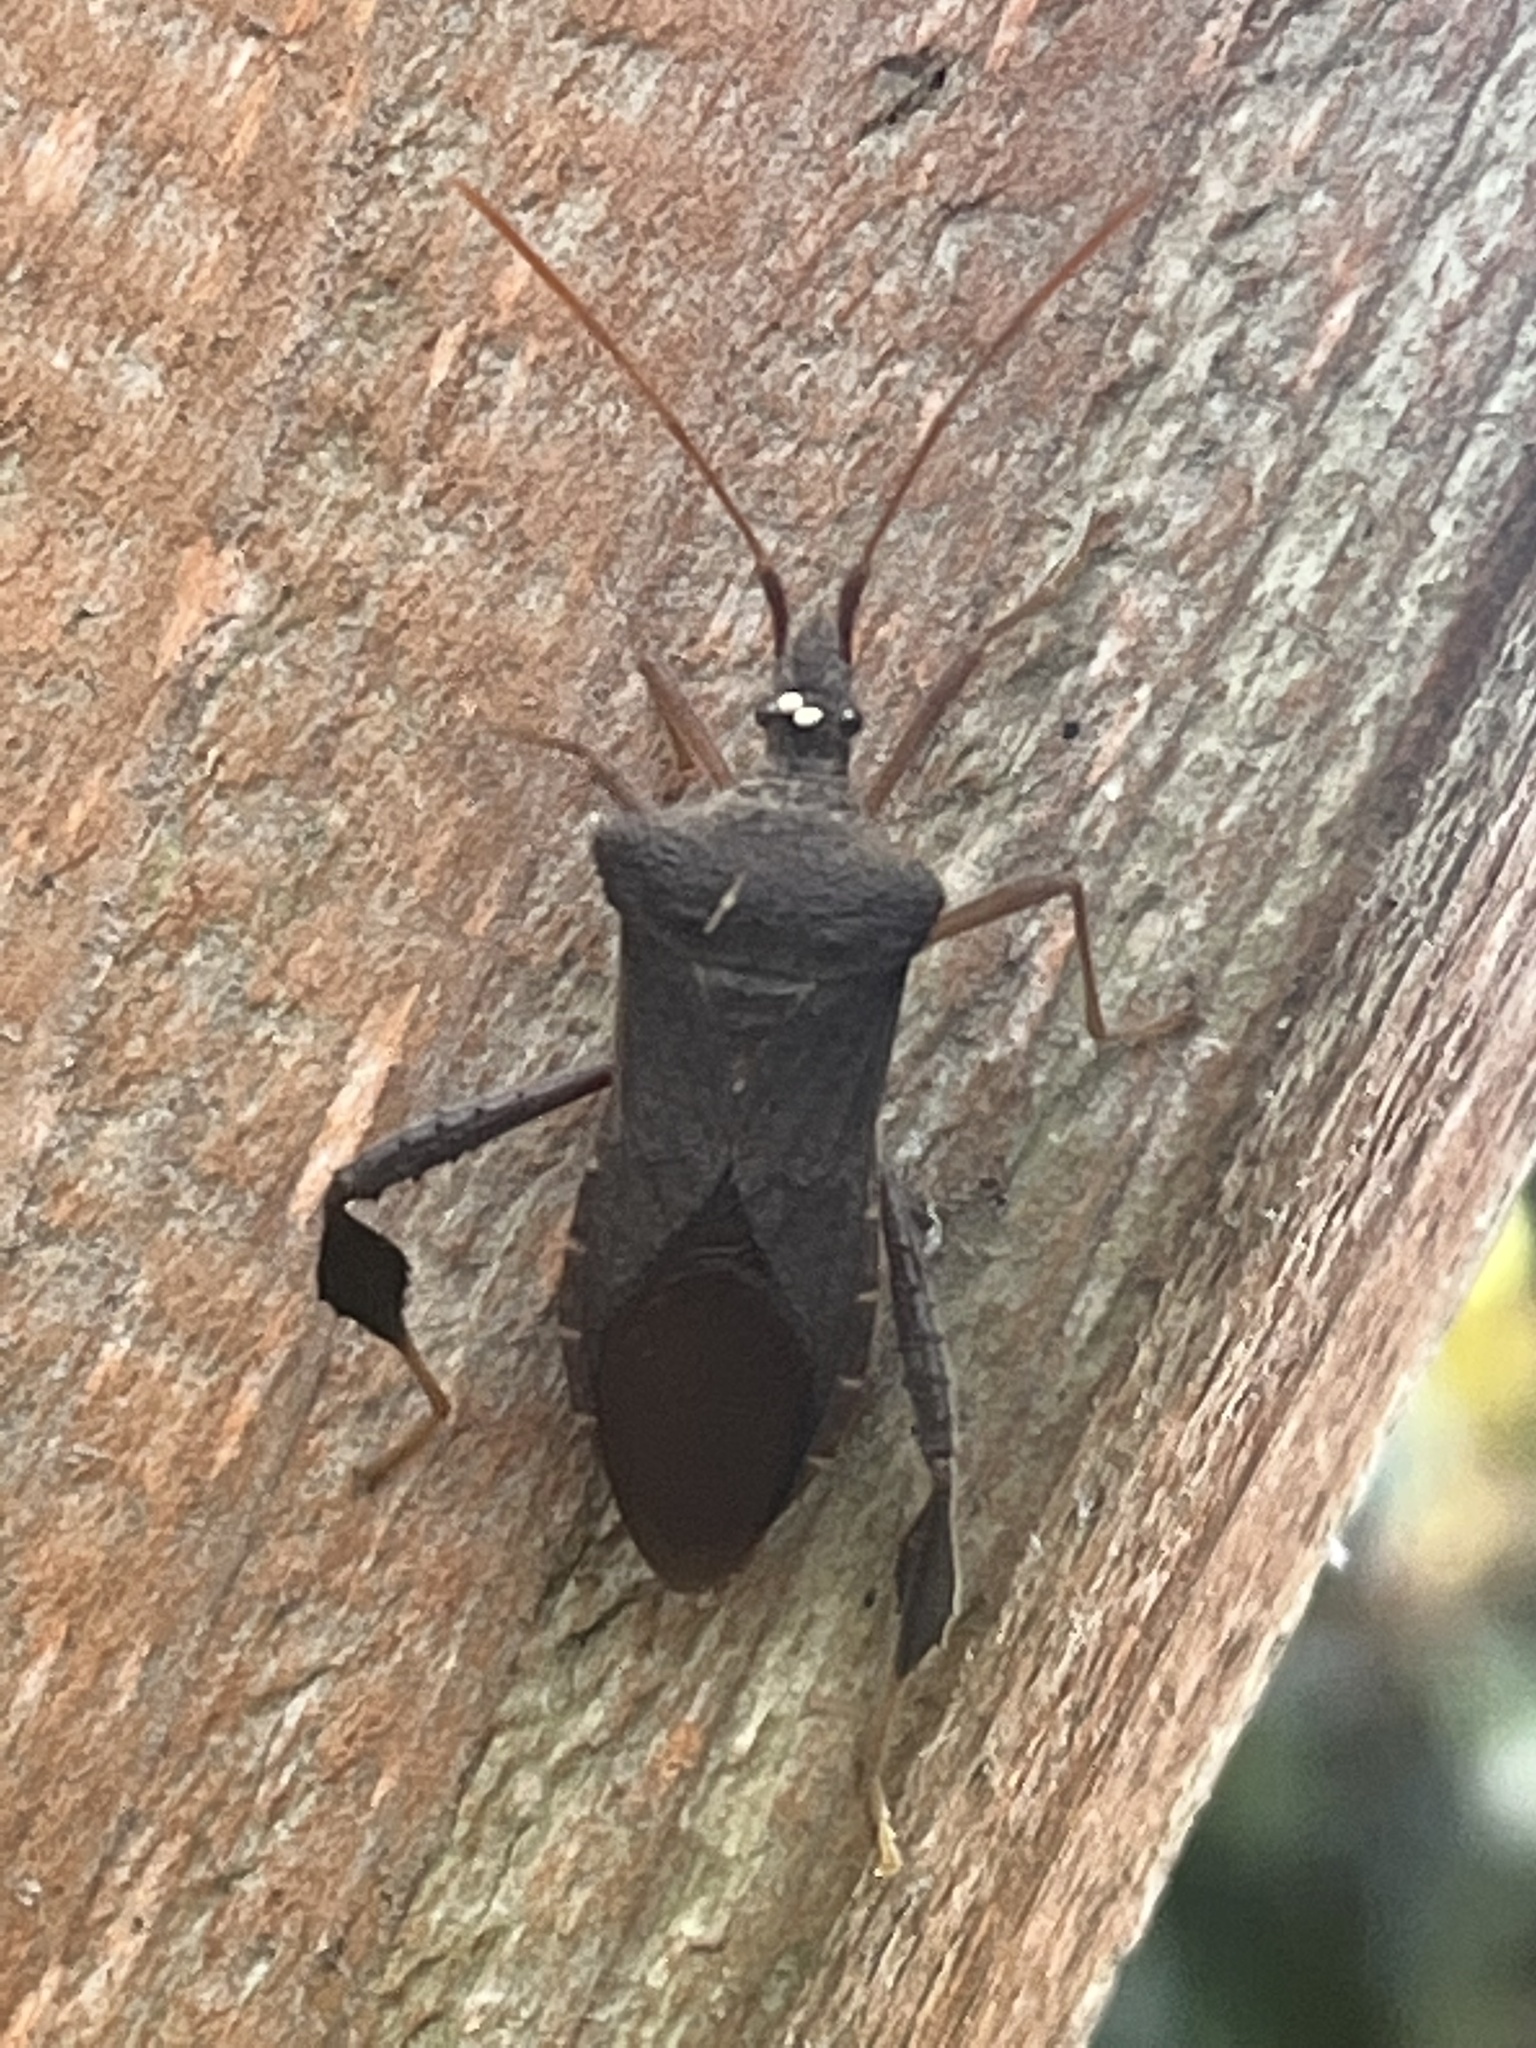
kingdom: Animalia
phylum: Arthropoda
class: Insecta
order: Hemiptera
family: Coreidae
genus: Leptoglossus
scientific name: Leptoglossus fulvicornis
